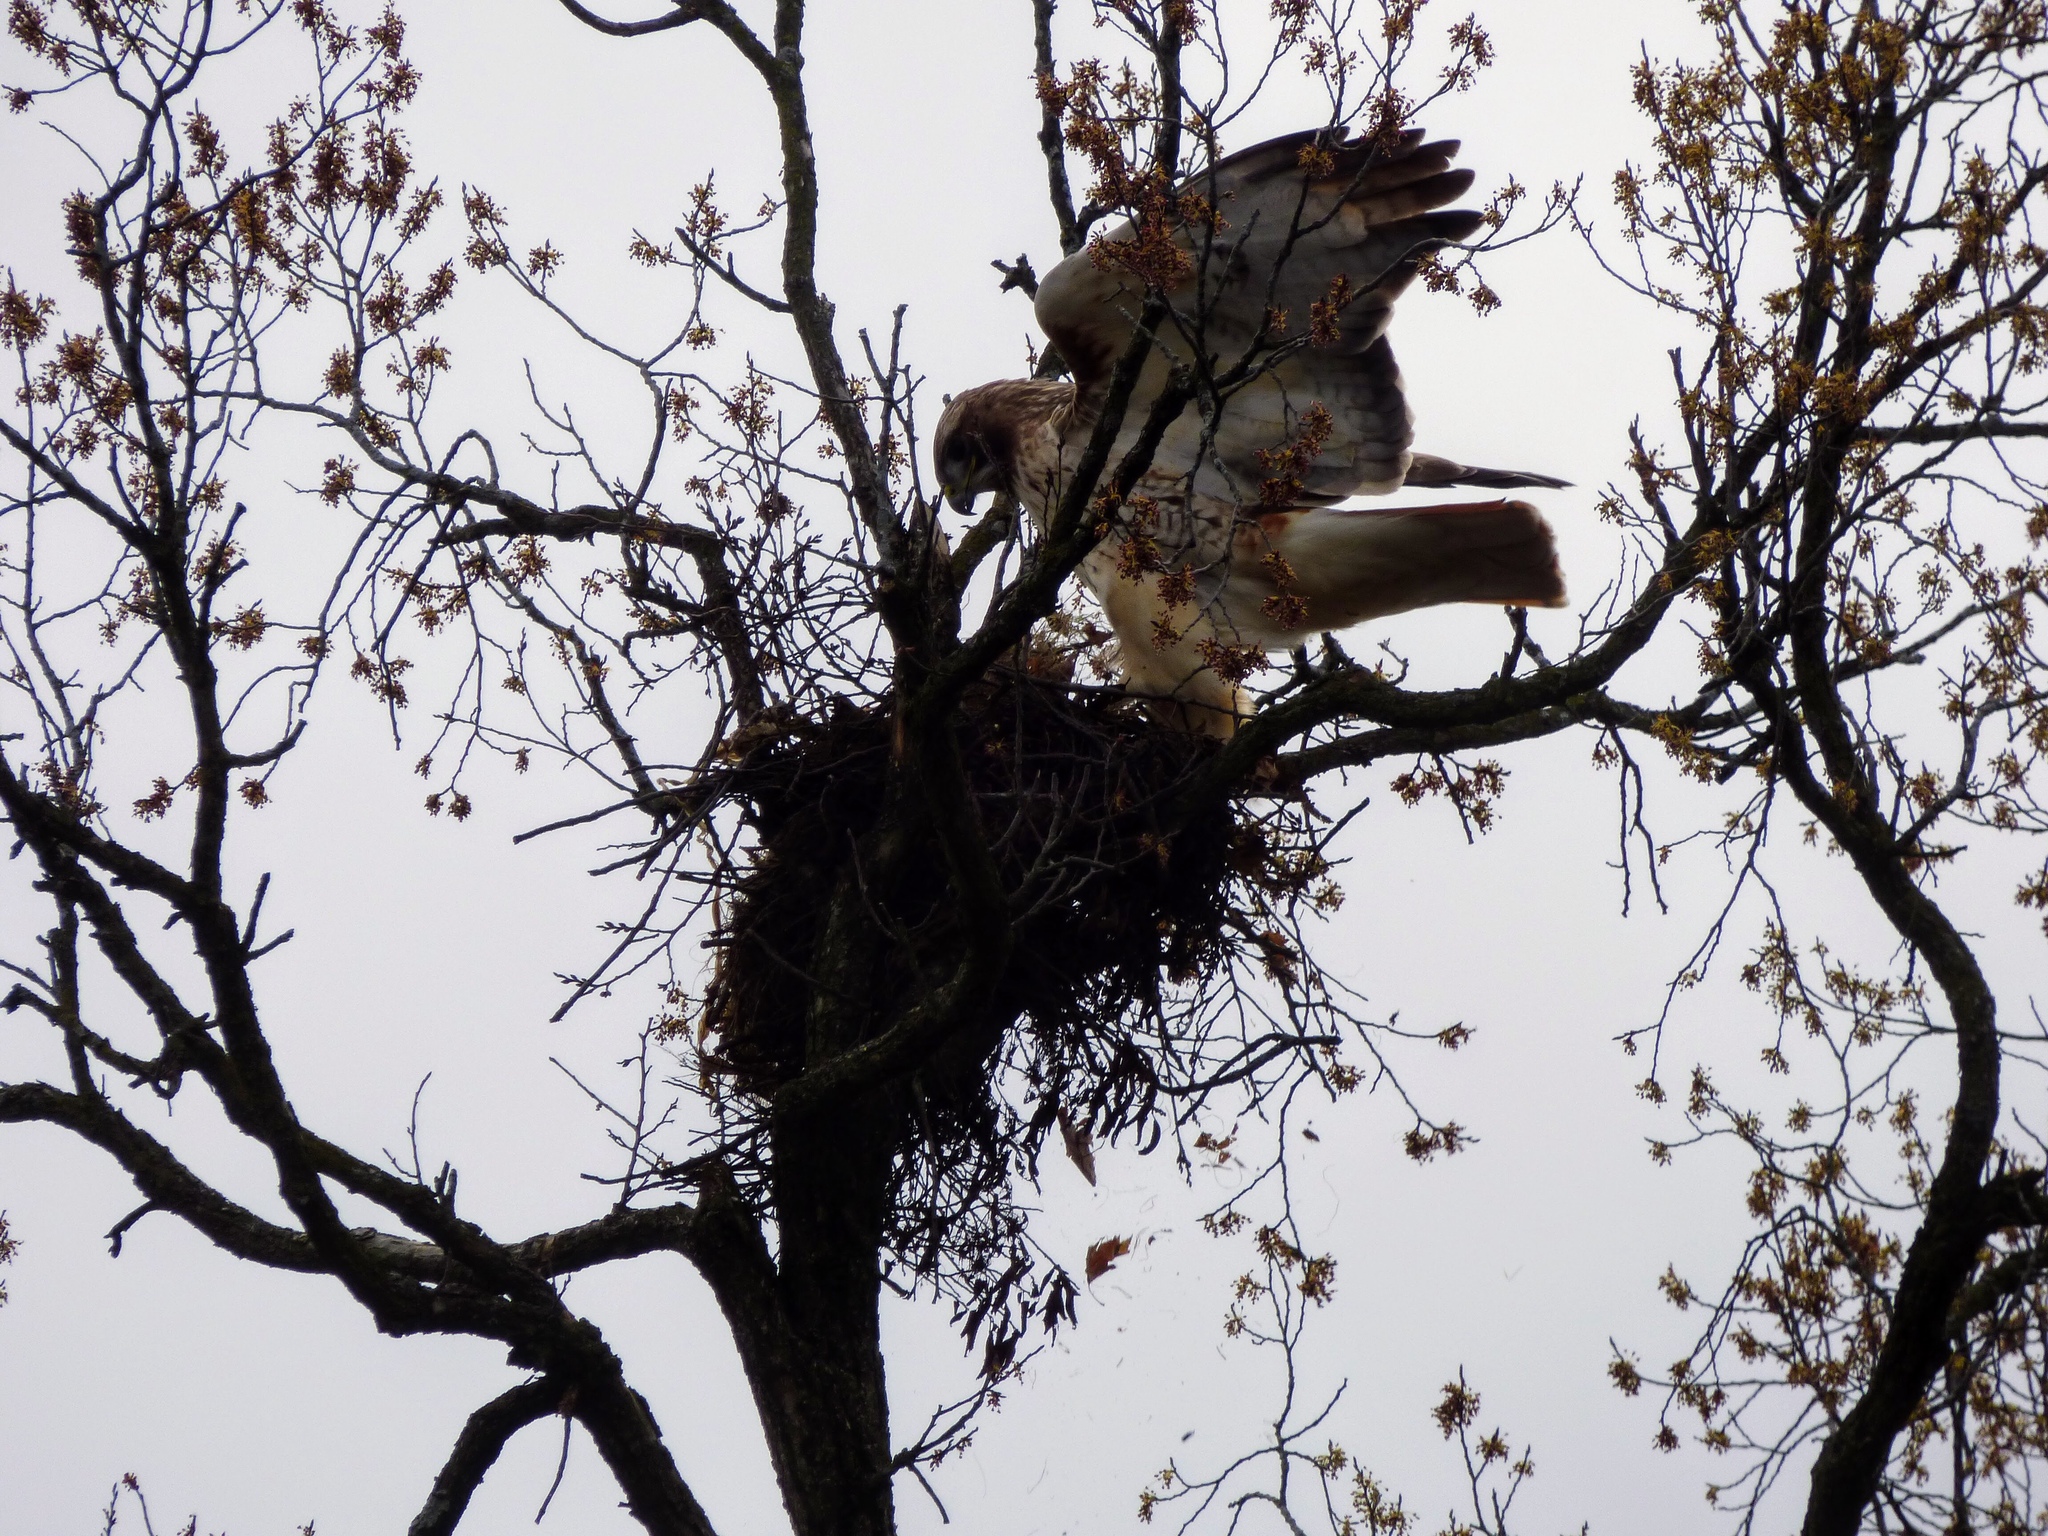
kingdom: Animalia
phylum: Chordata
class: Aves
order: Accipitriformes
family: Accipitridae
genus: Buteo
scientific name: Buteo jamaicensis
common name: Red-tailed hawk
